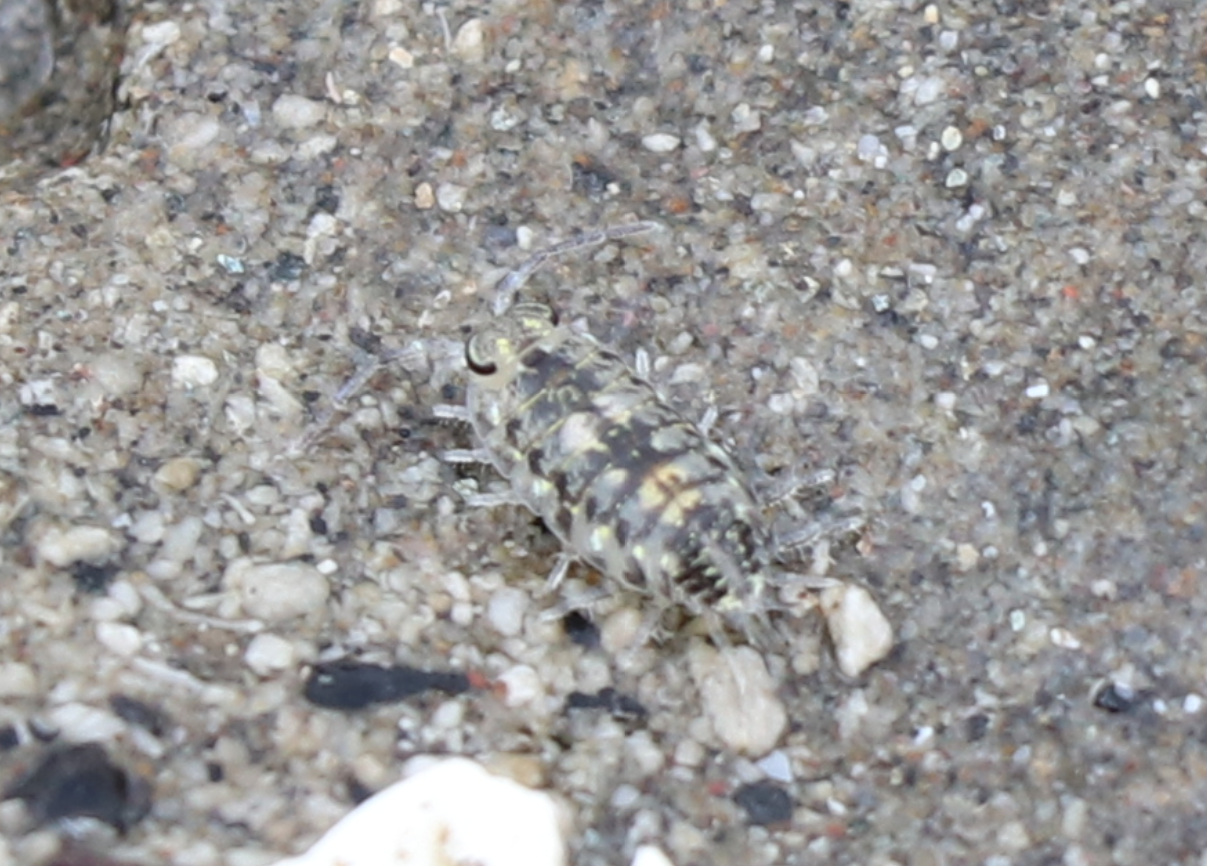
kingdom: Animalia
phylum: Arthropoda
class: Malacostraca
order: Isopoda
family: Scyphacidae
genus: Scyphax
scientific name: Scyphax ornatus
